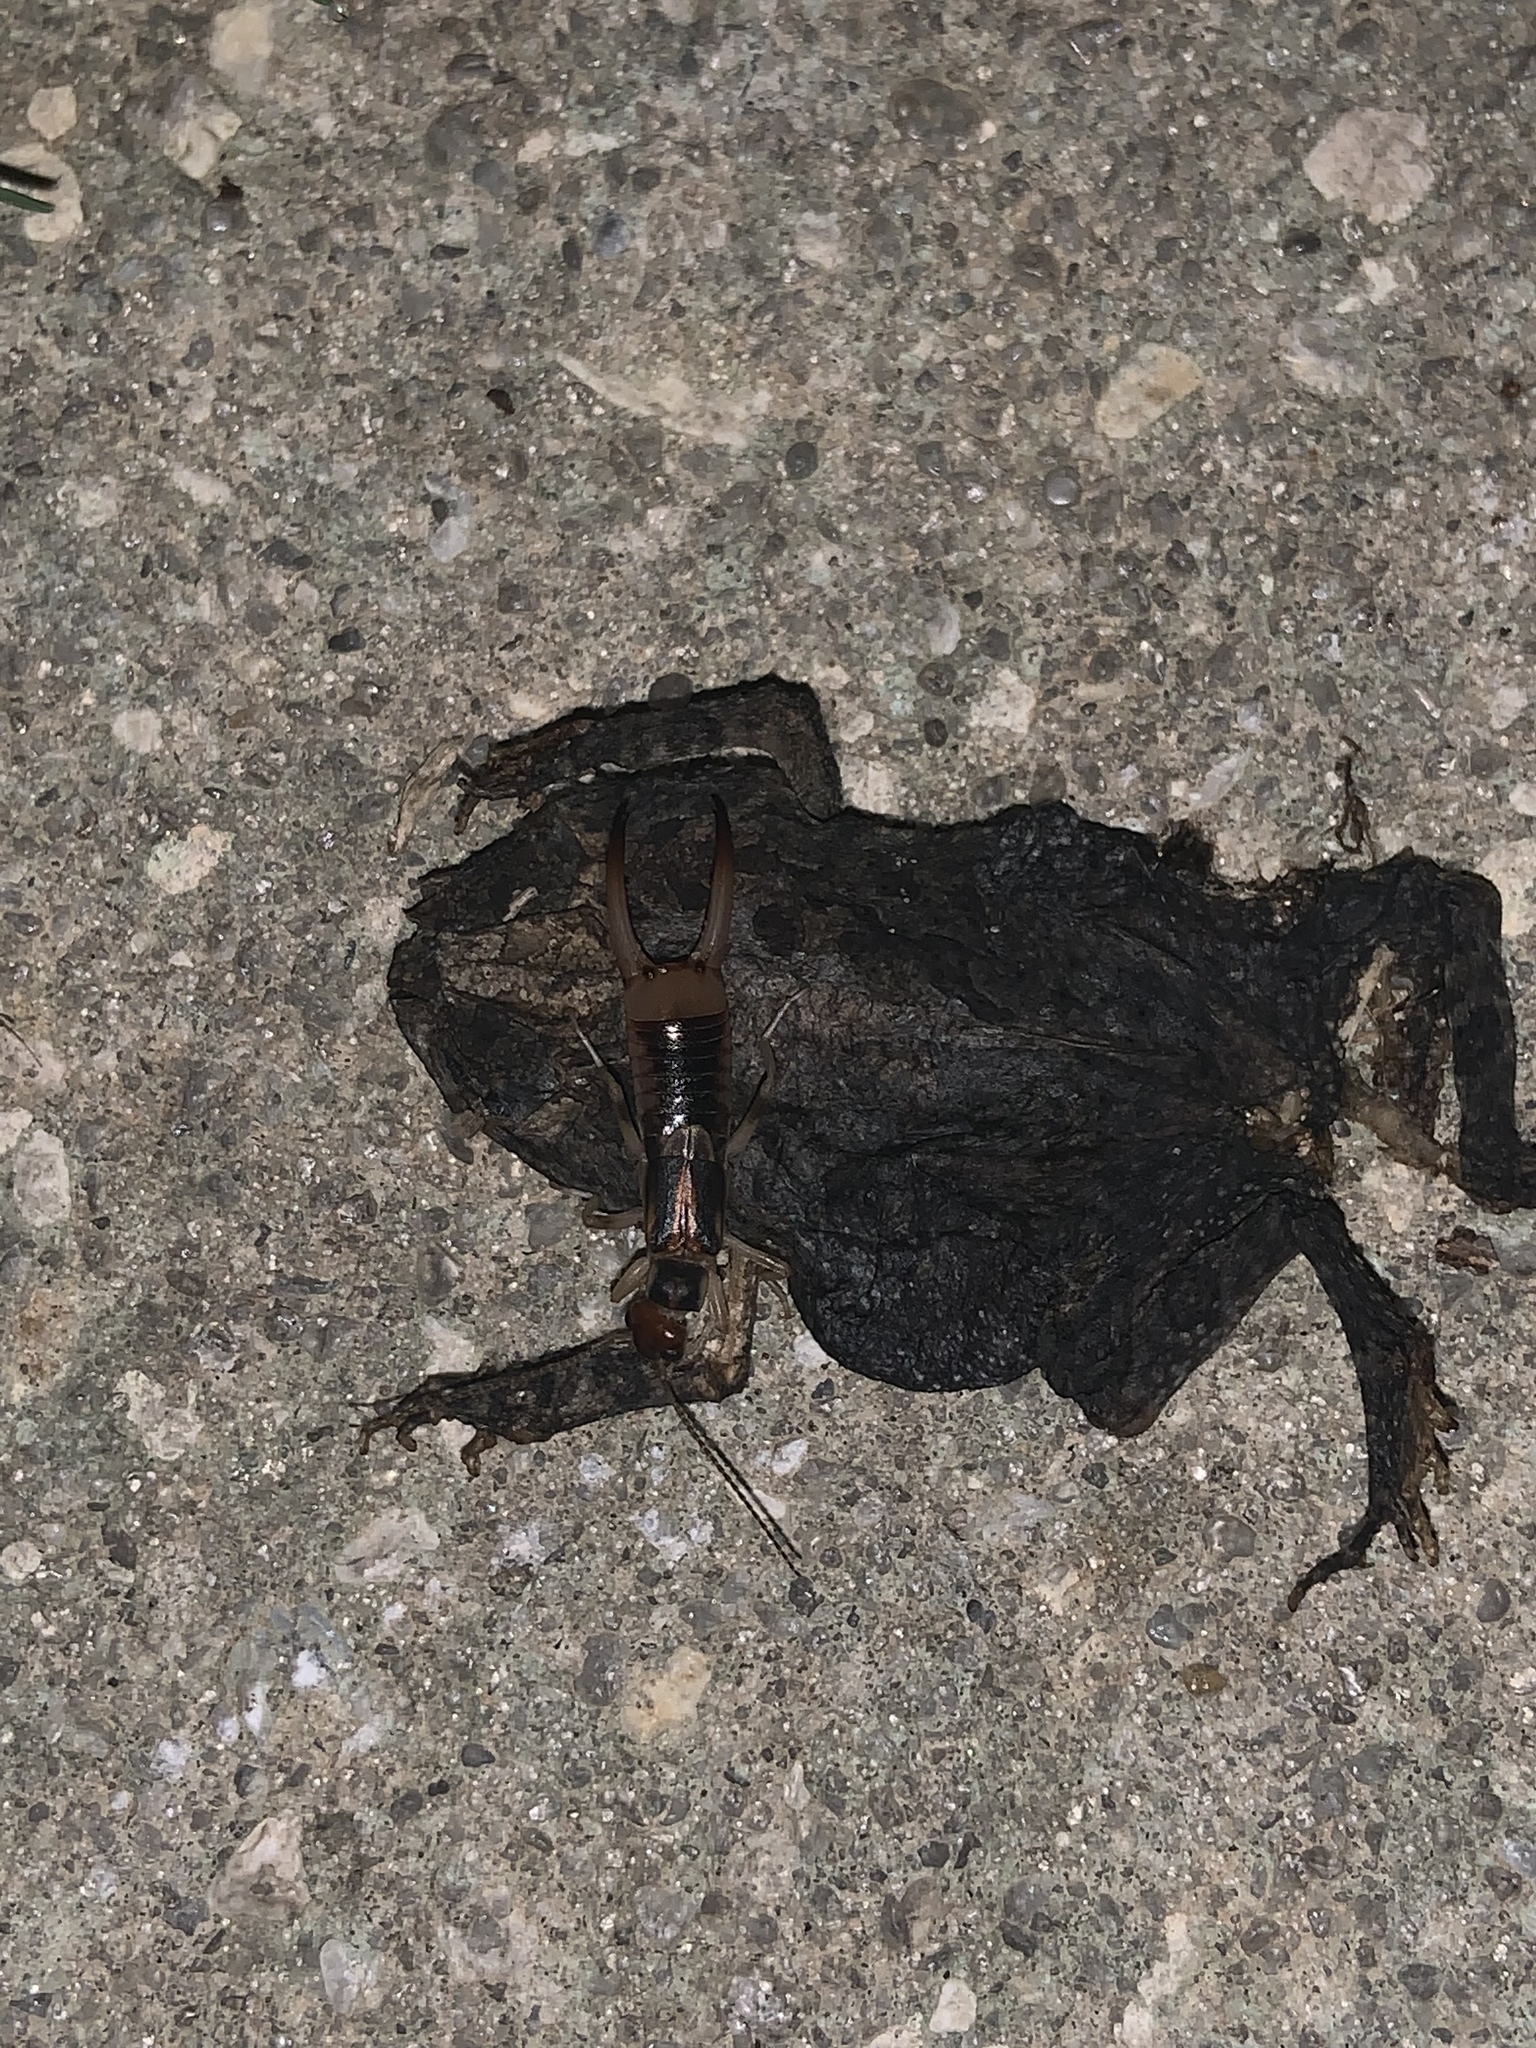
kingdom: Animalia
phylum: Arthropoda
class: Insecta
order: Dermaptera
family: Labiduridae
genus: Labidura
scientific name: Labidura riparia
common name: Striped earwig
